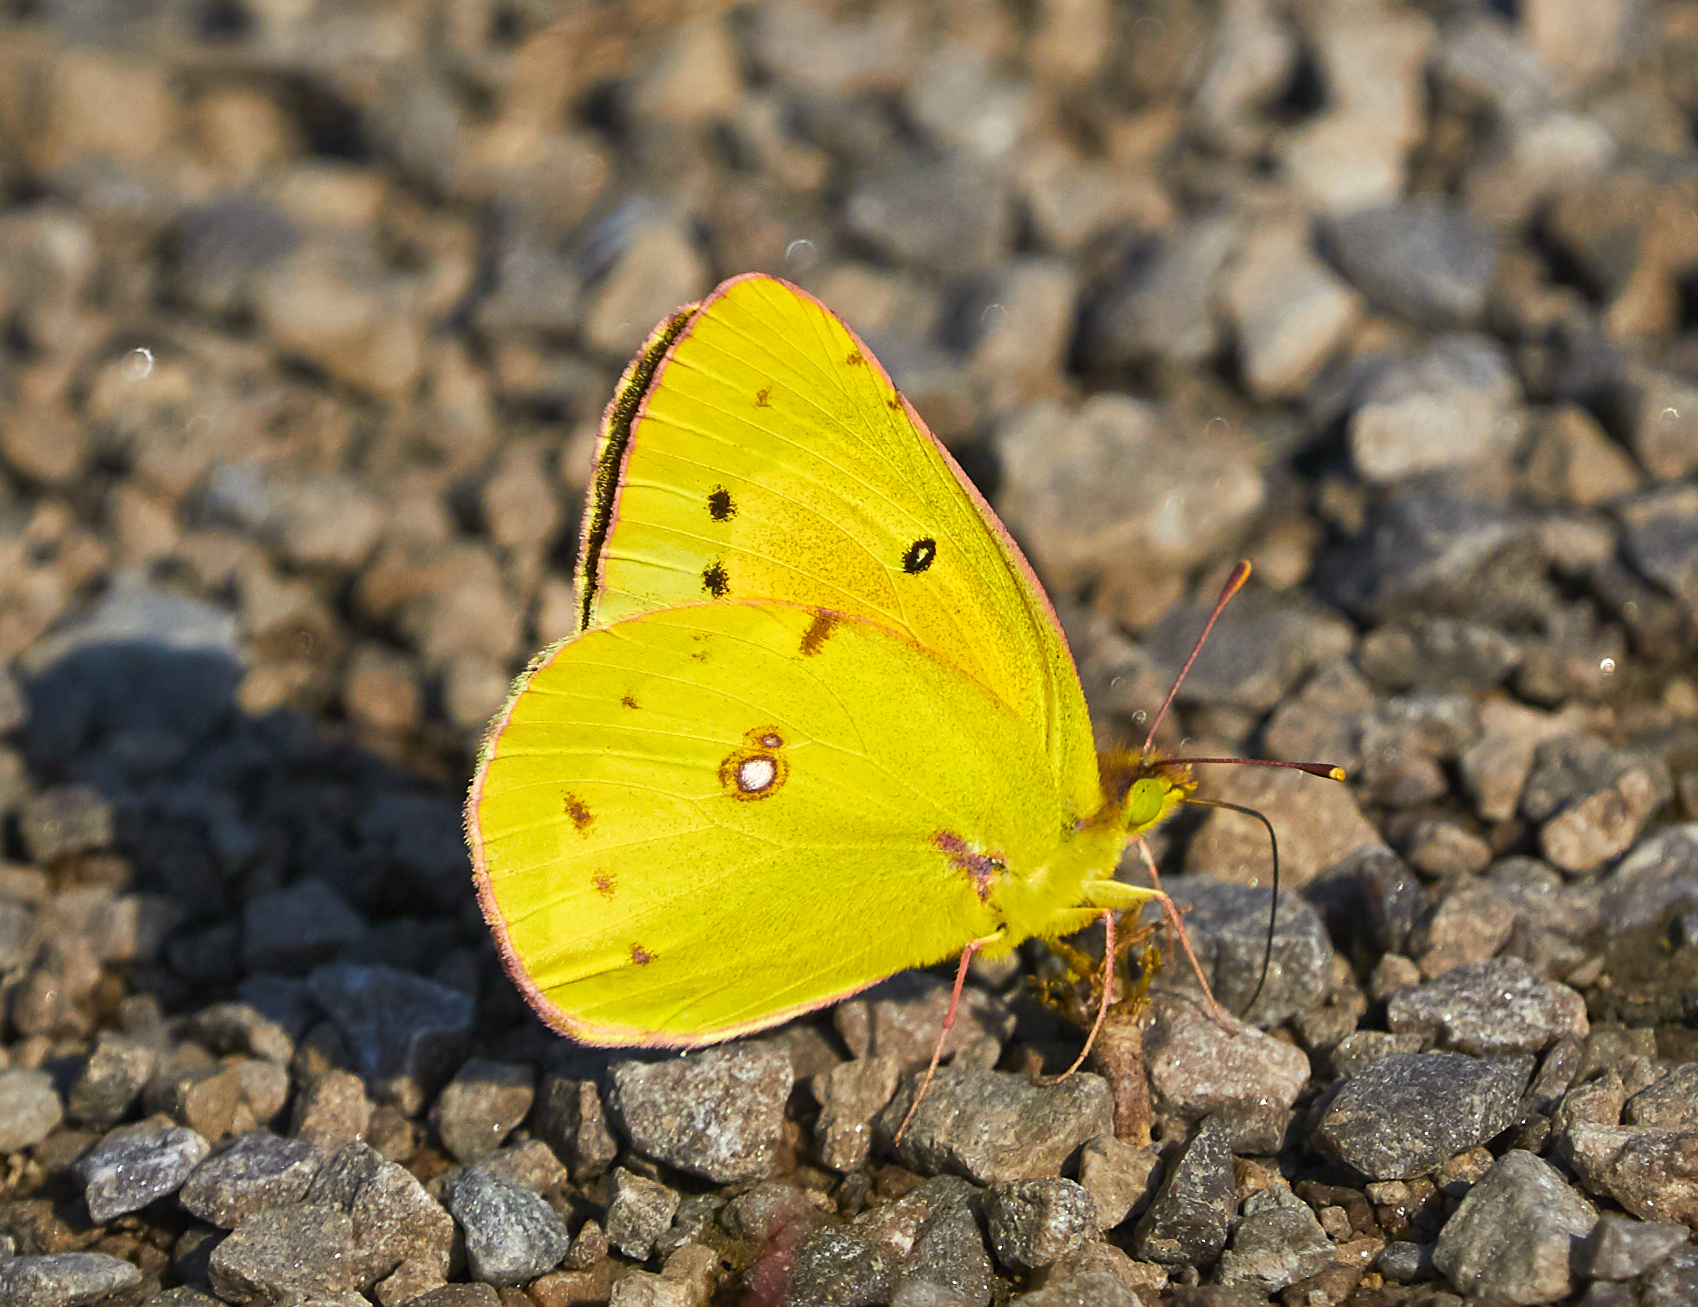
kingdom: Animalia
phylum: Arthropoda
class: Insecta
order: Lepidoptera
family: Pieridae
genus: Colias
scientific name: Colias eurytheme
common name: Alfalfa butterfly
